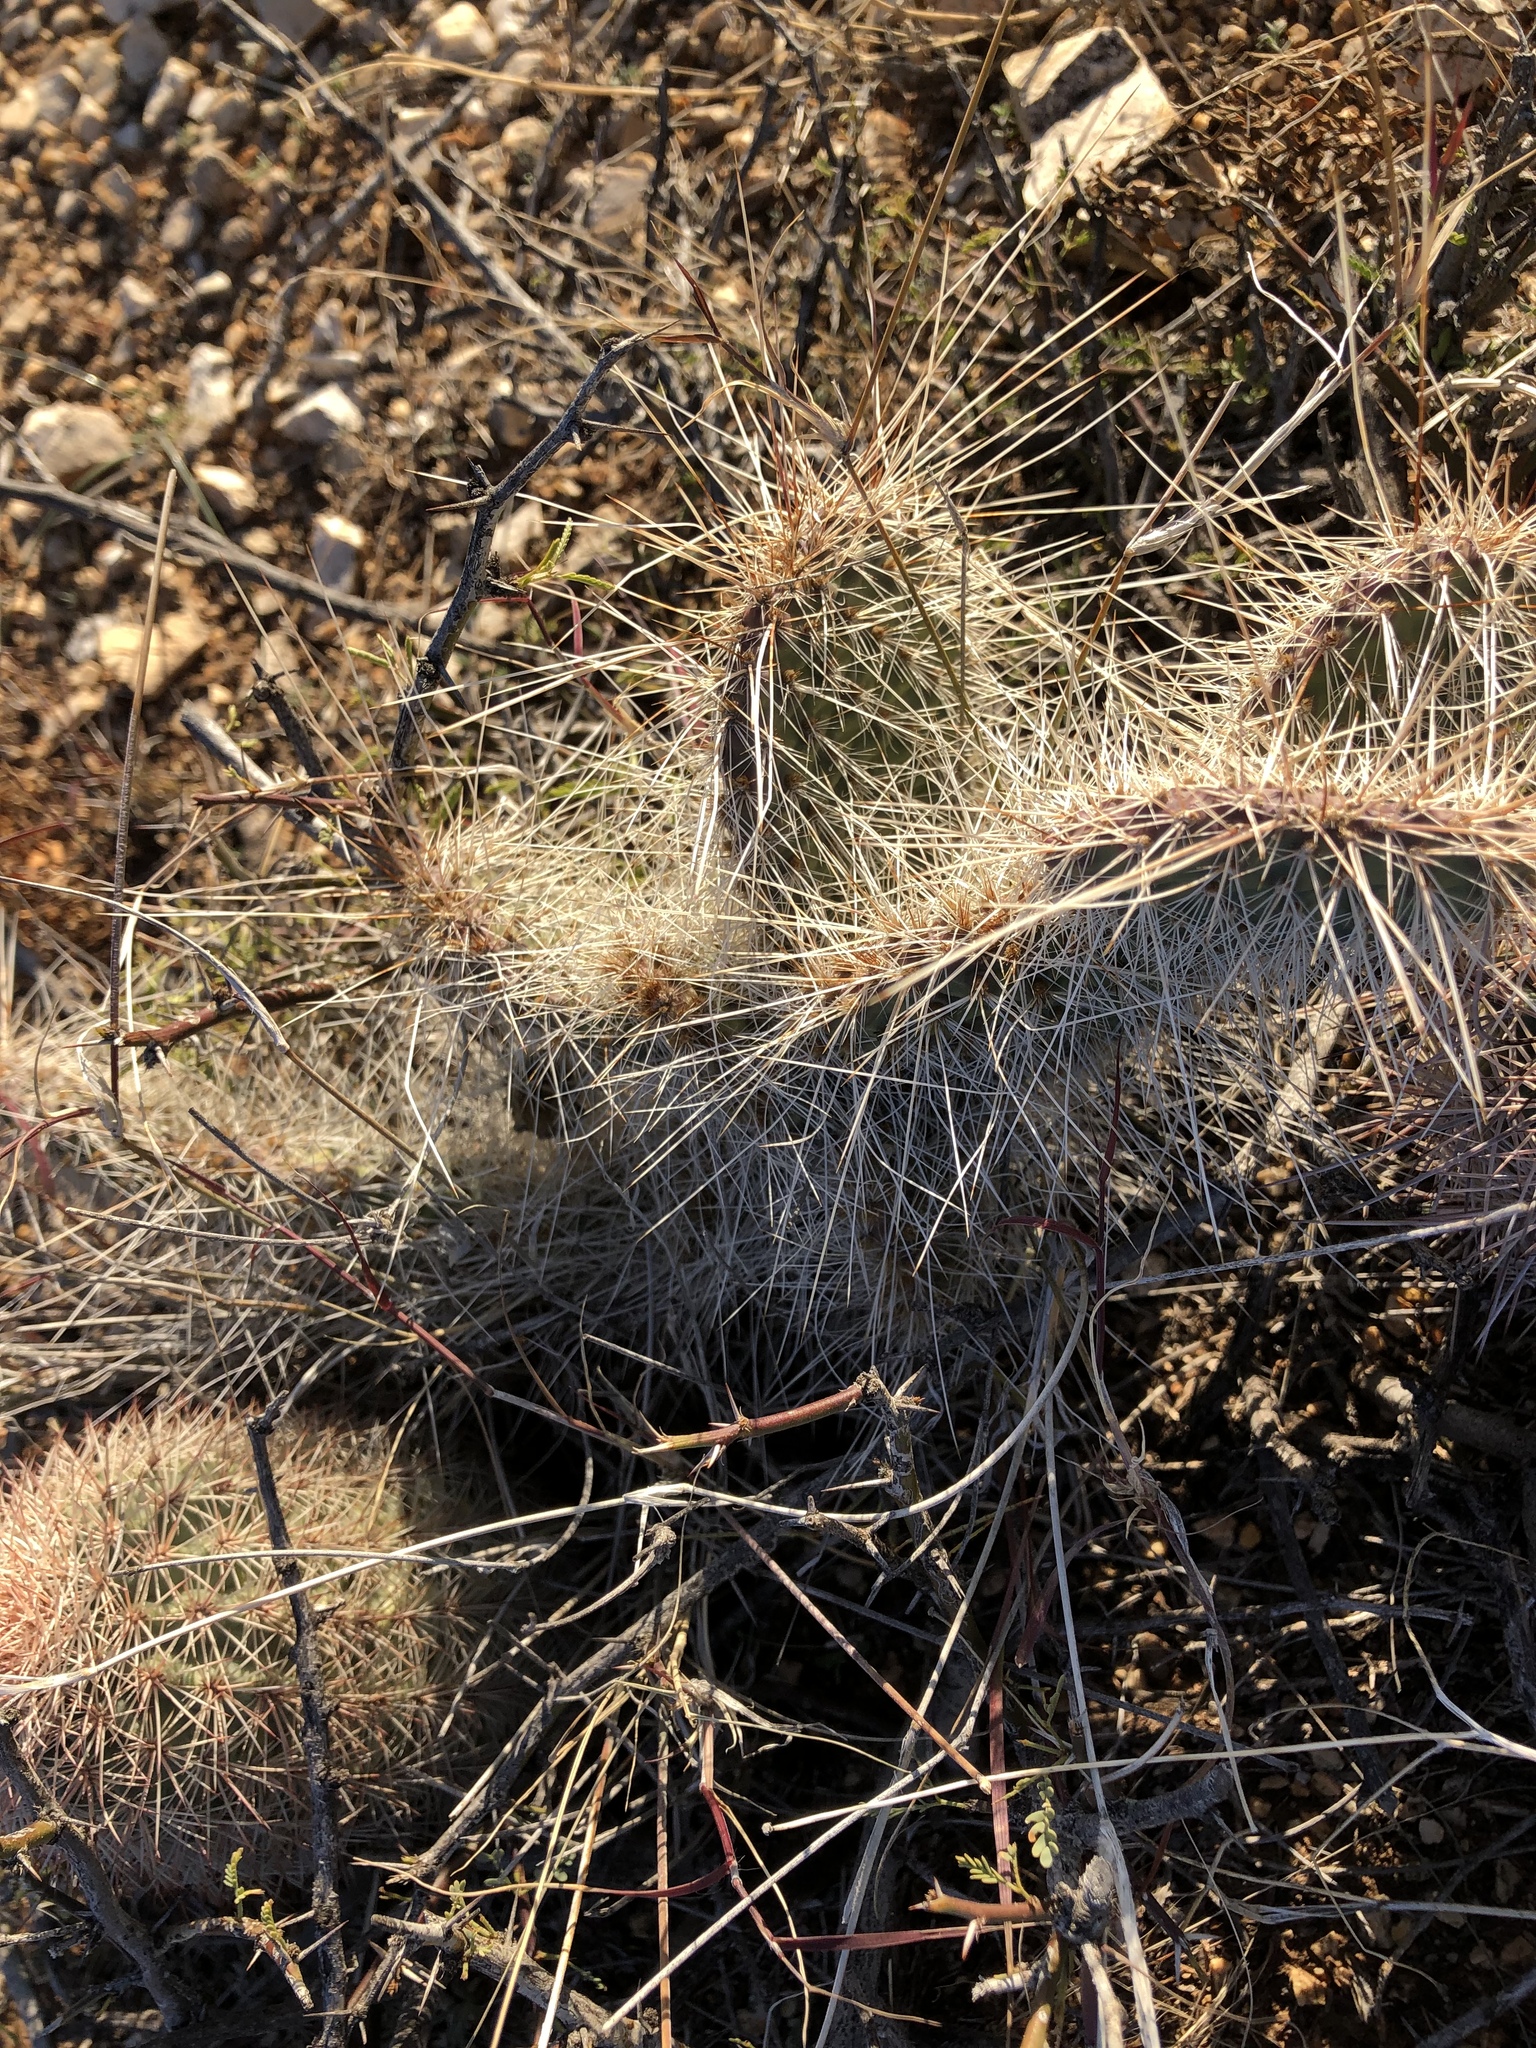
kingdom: Plantae
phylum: Tracheophyta
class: Magnoliopsida
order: Caryophyllales
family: Cactaceae
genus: Opuntia
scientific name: Opuntia polyacantha
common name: Plains prickly-pear
